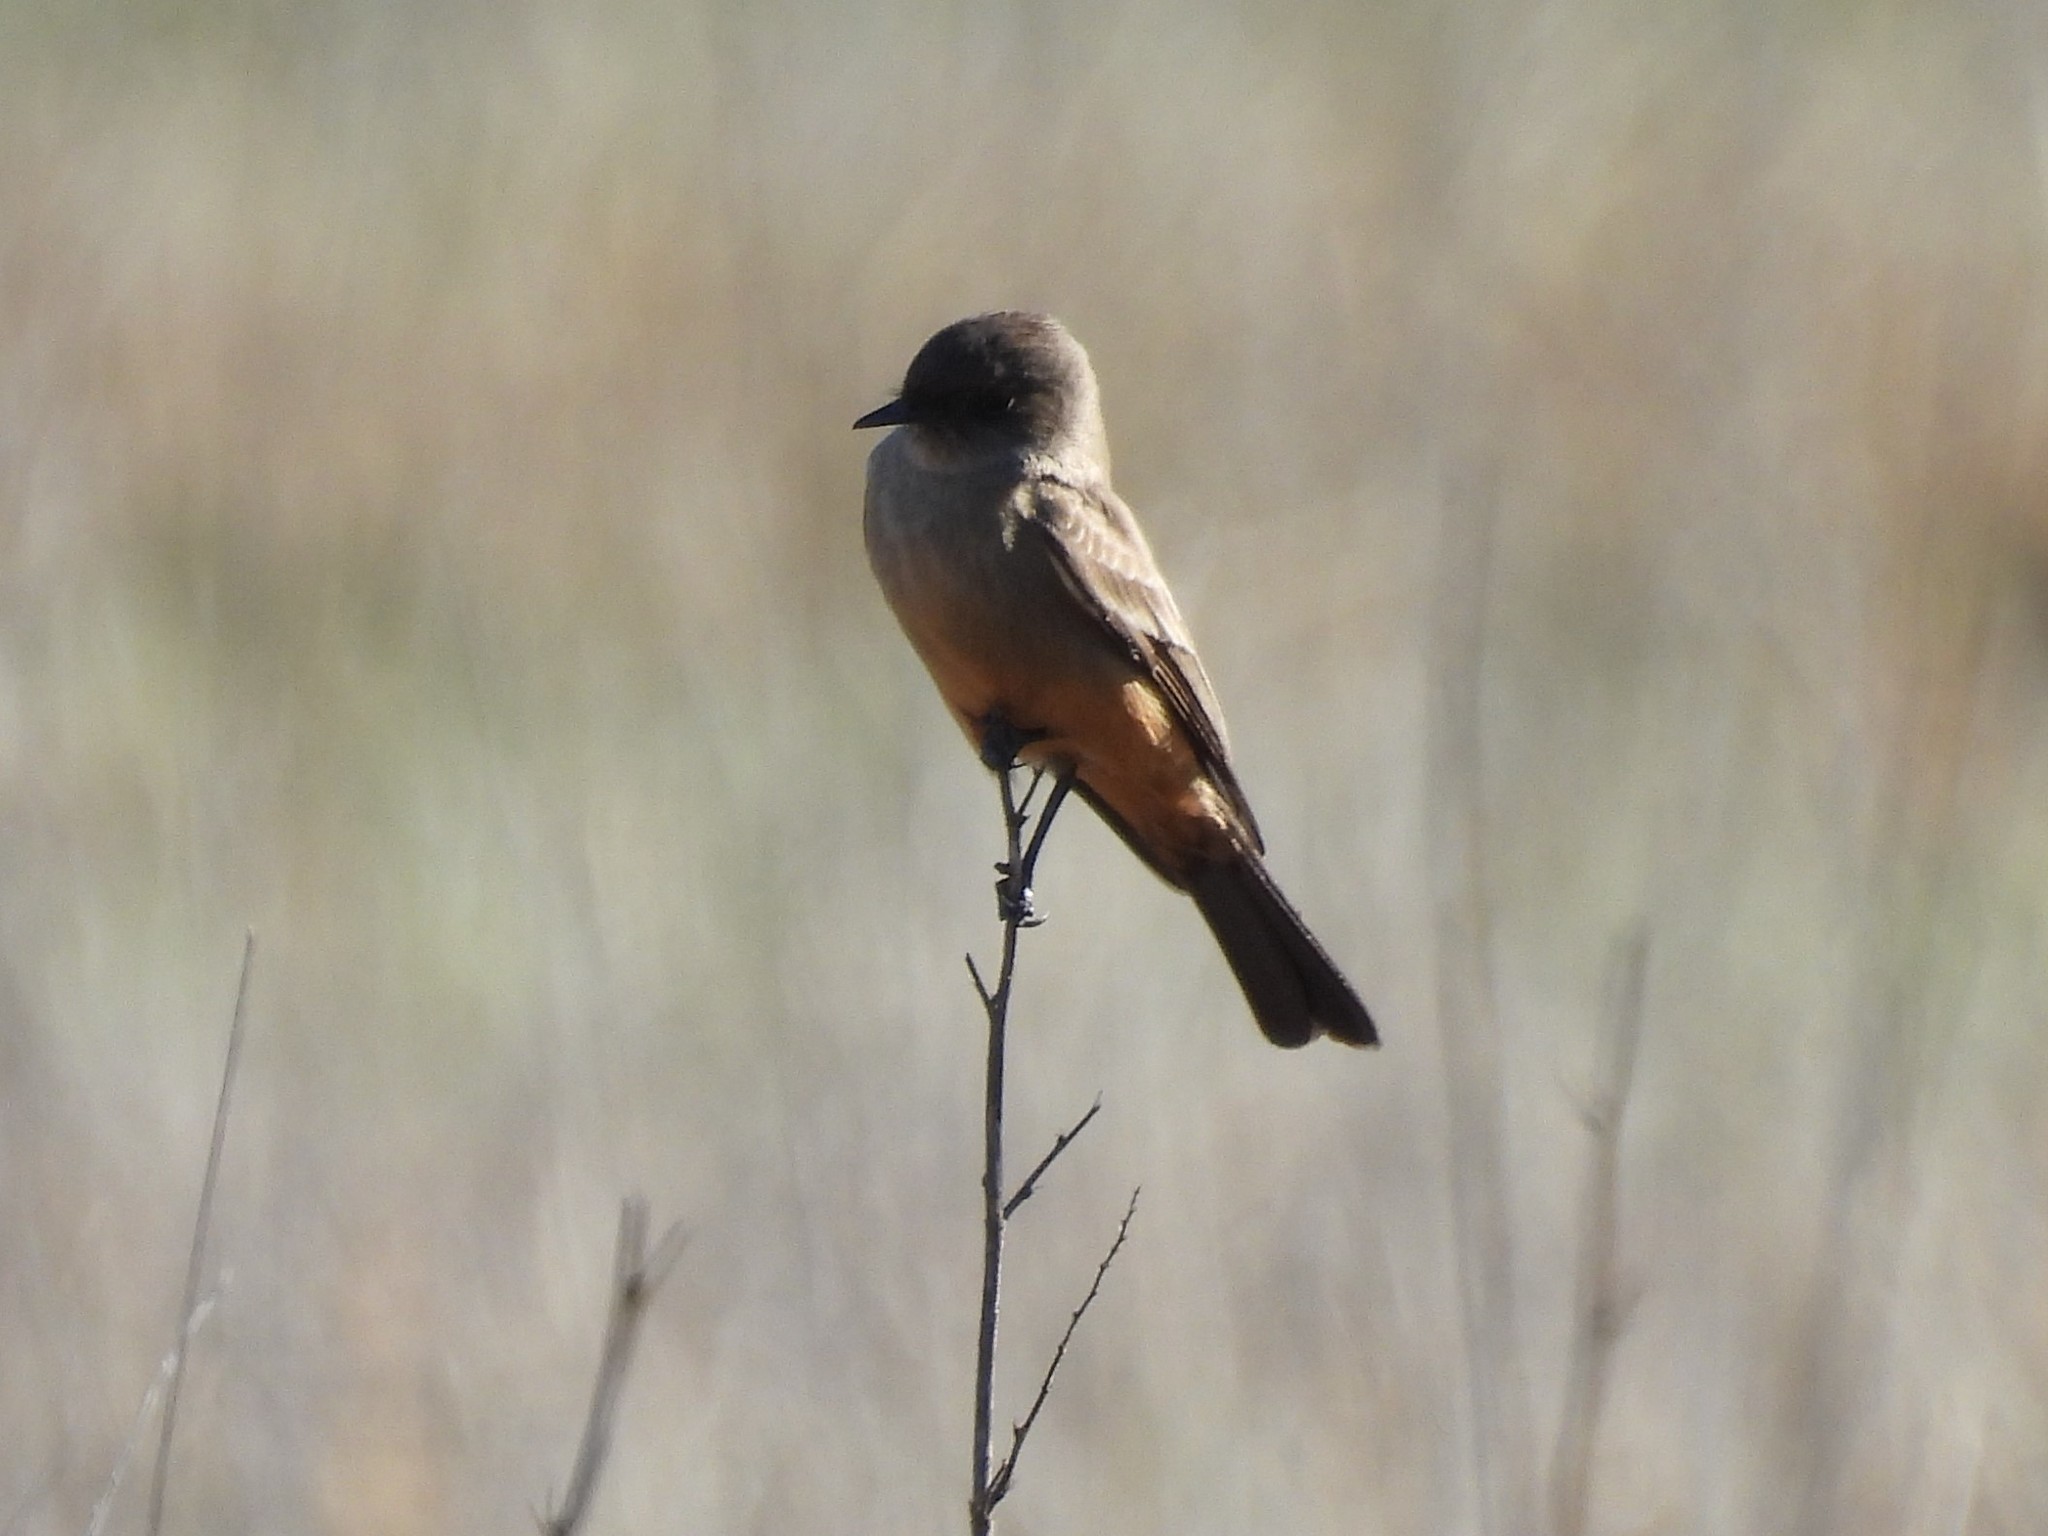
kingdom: Animalia
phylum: Chordata
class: Aves
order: Passeriformes
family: Tyrannidae
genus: Sayornis
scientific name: Sayornis saya
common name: Say's phoebe
